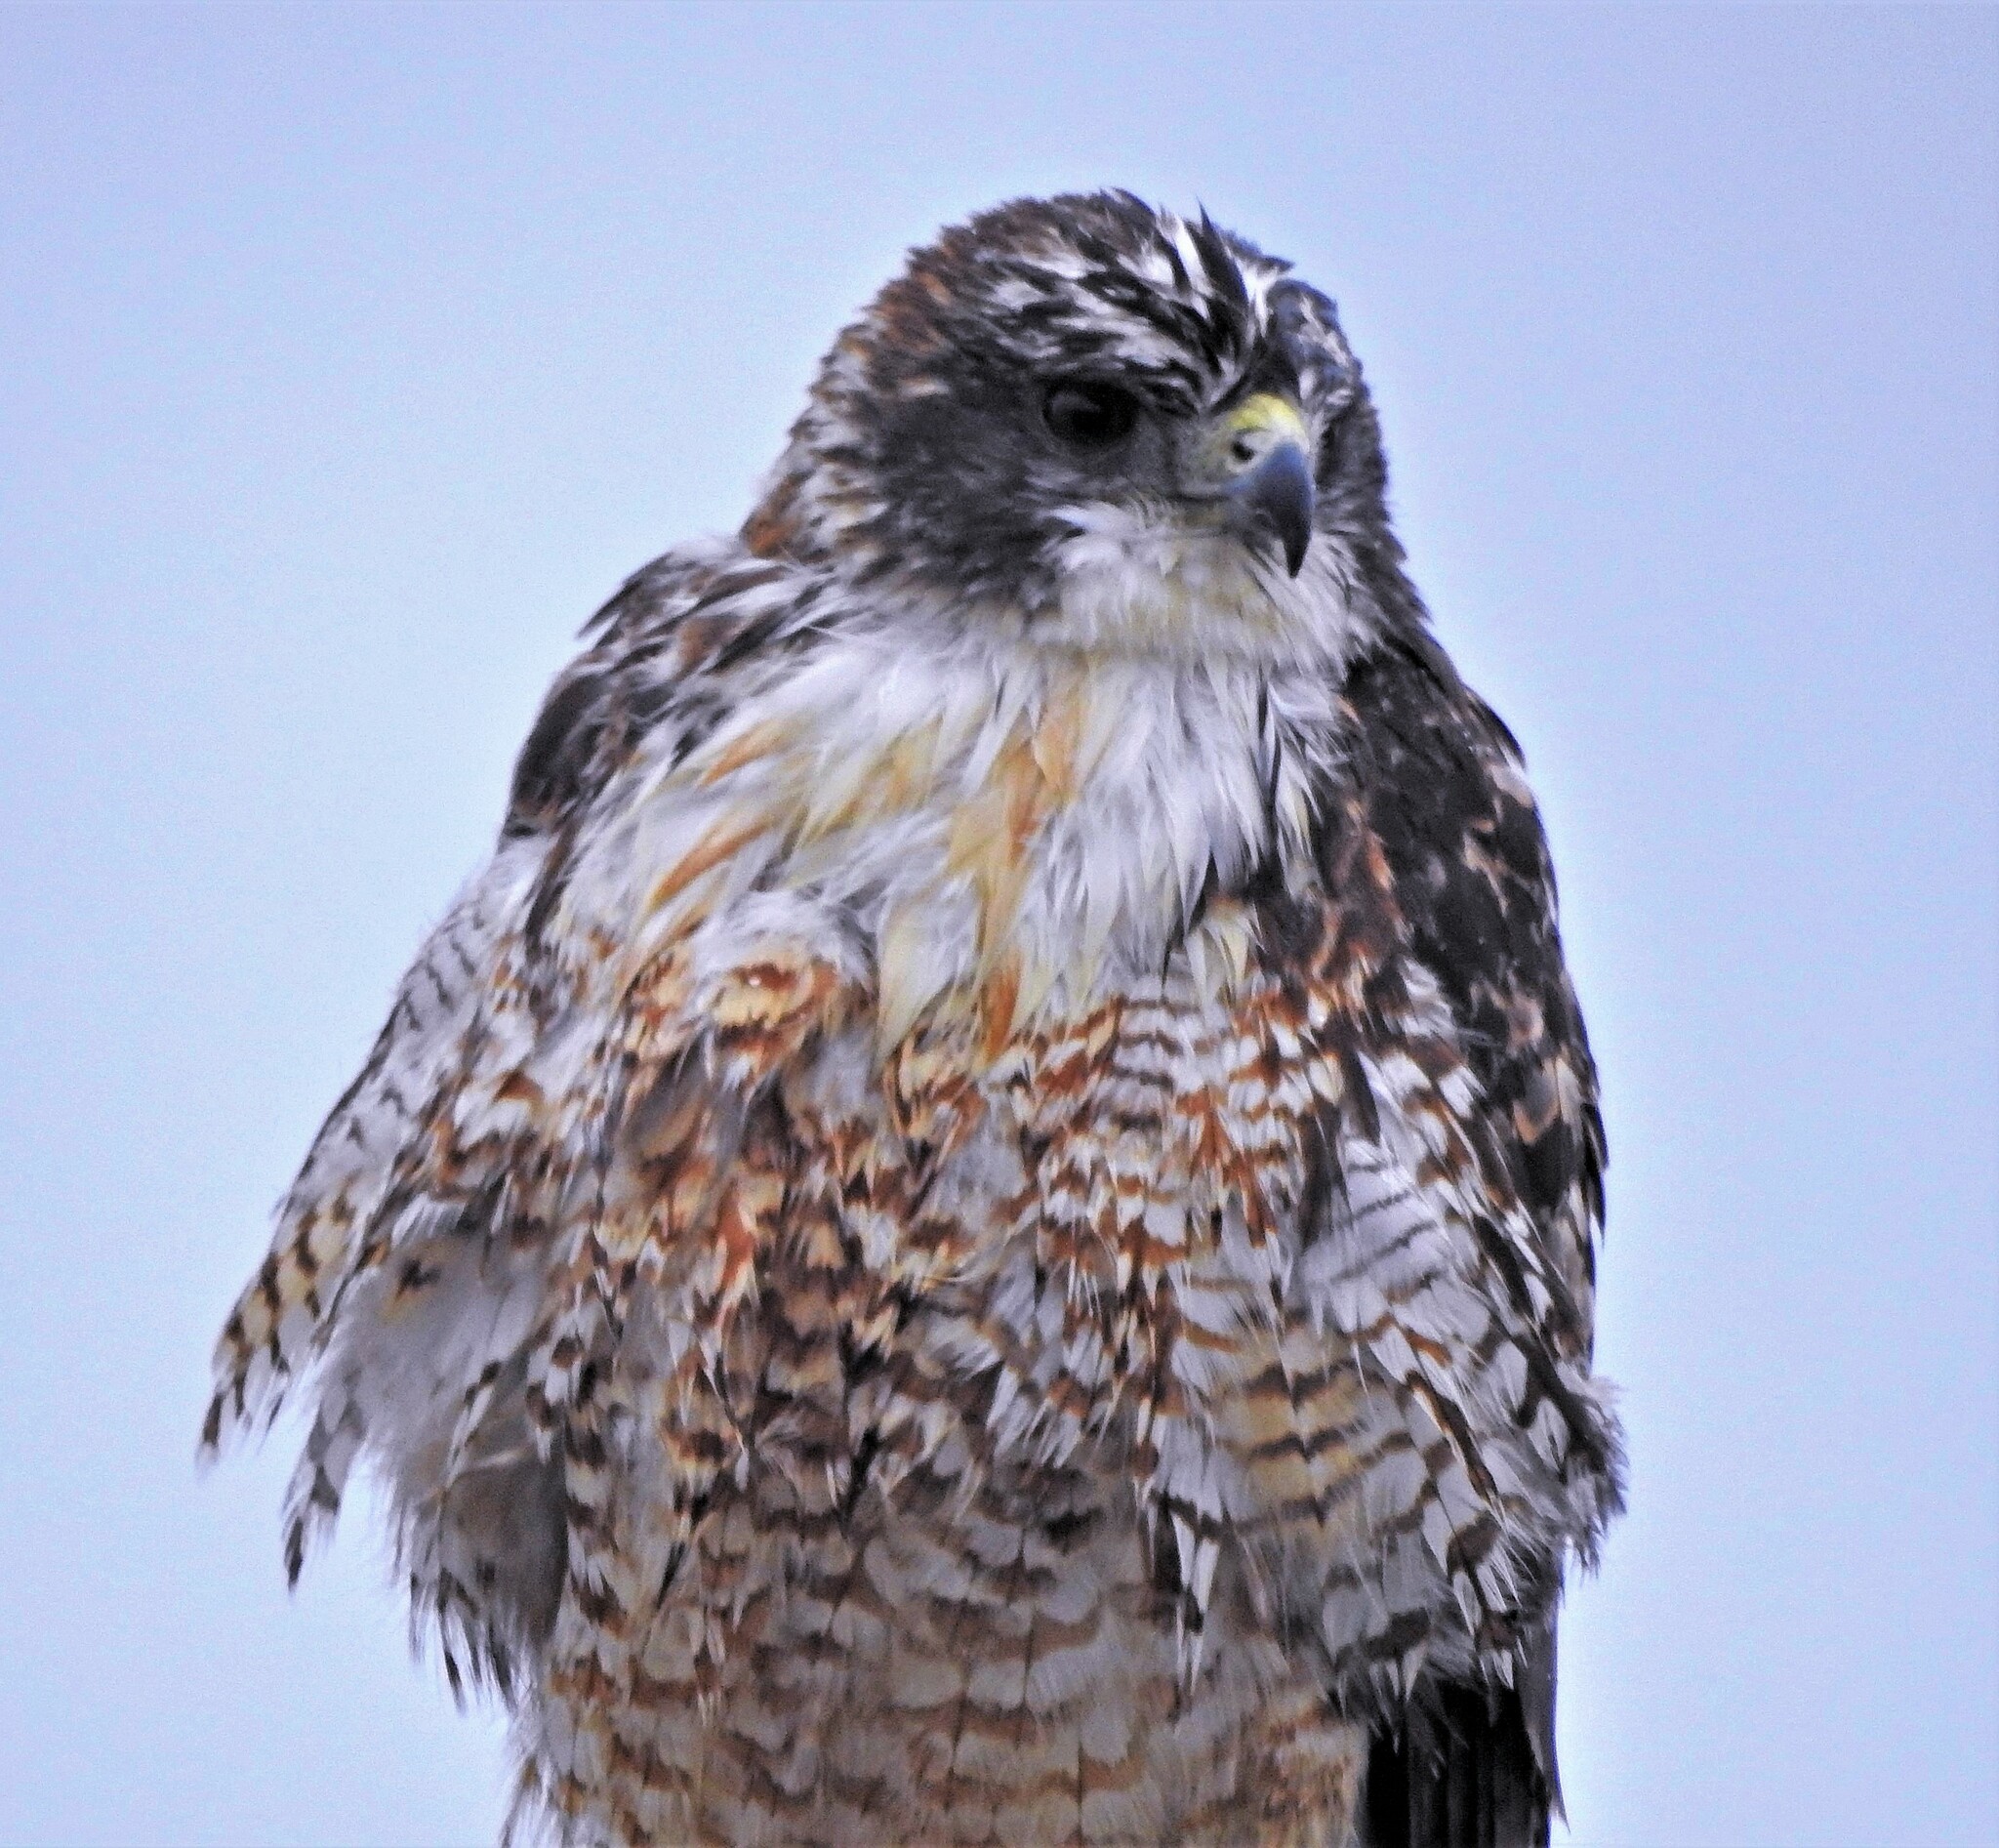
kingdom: Animalia
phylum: Chordata
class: Aves
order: Accipitriformes
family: Accipitridae
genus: Buteo
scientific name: Buteo polyosoma
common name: Variable hawk
